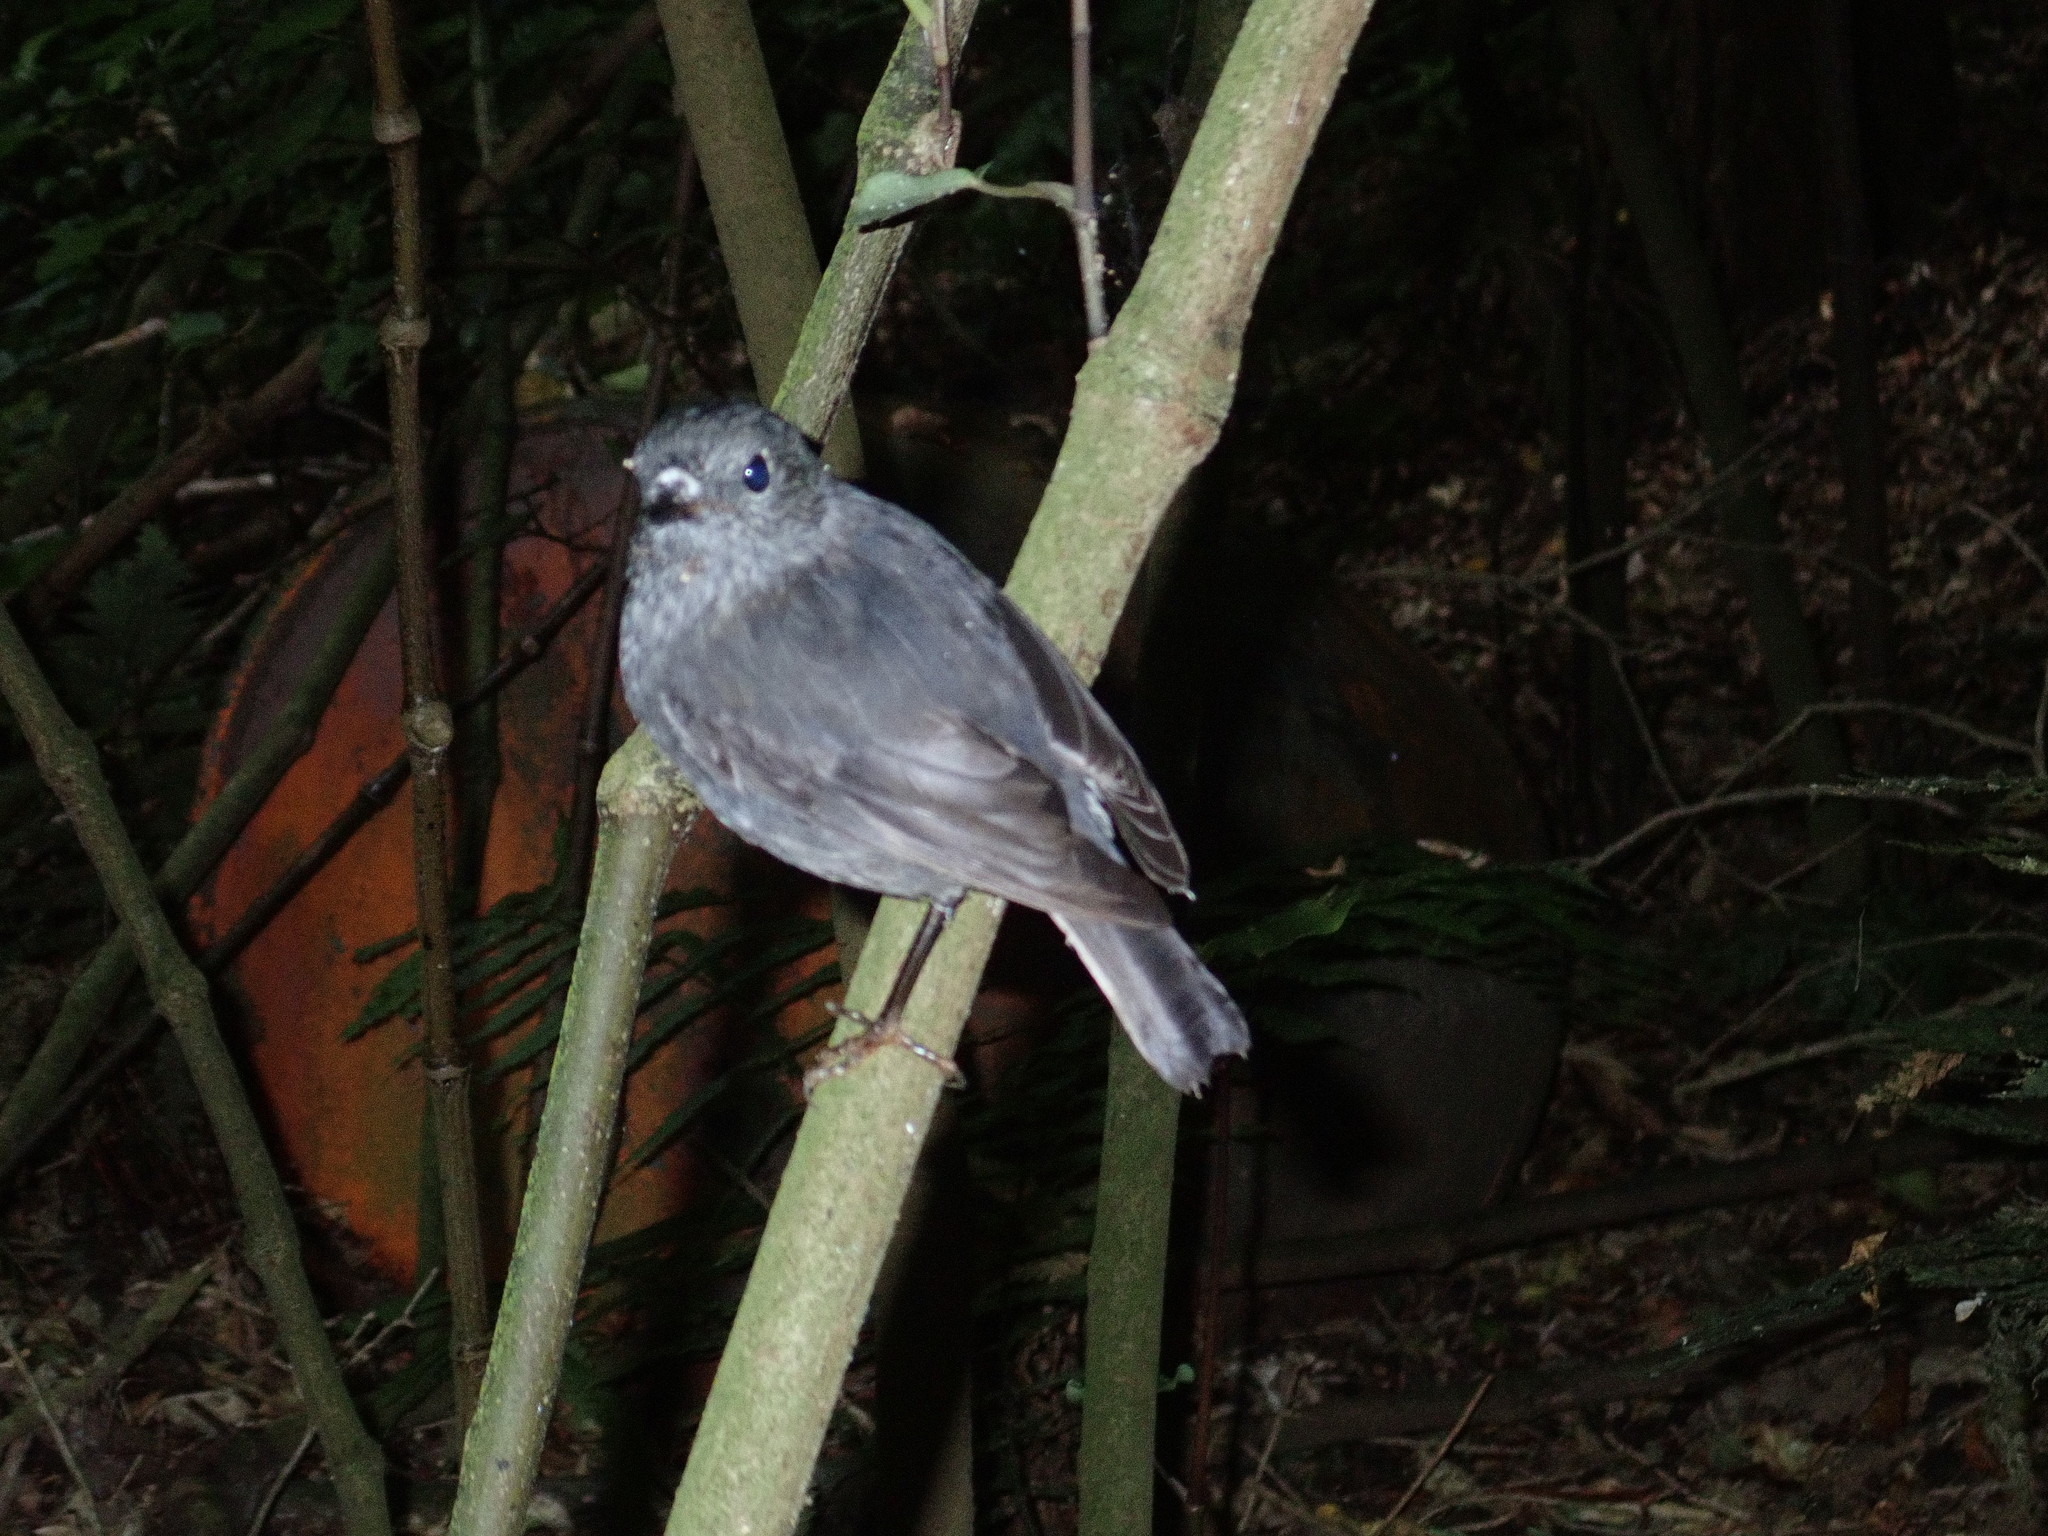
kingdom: Animalia
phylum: Chordata
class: Aves
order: Passeriformes
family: Petroicidae
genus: Petroica
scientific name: Petroica australis
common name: New zealand robin
